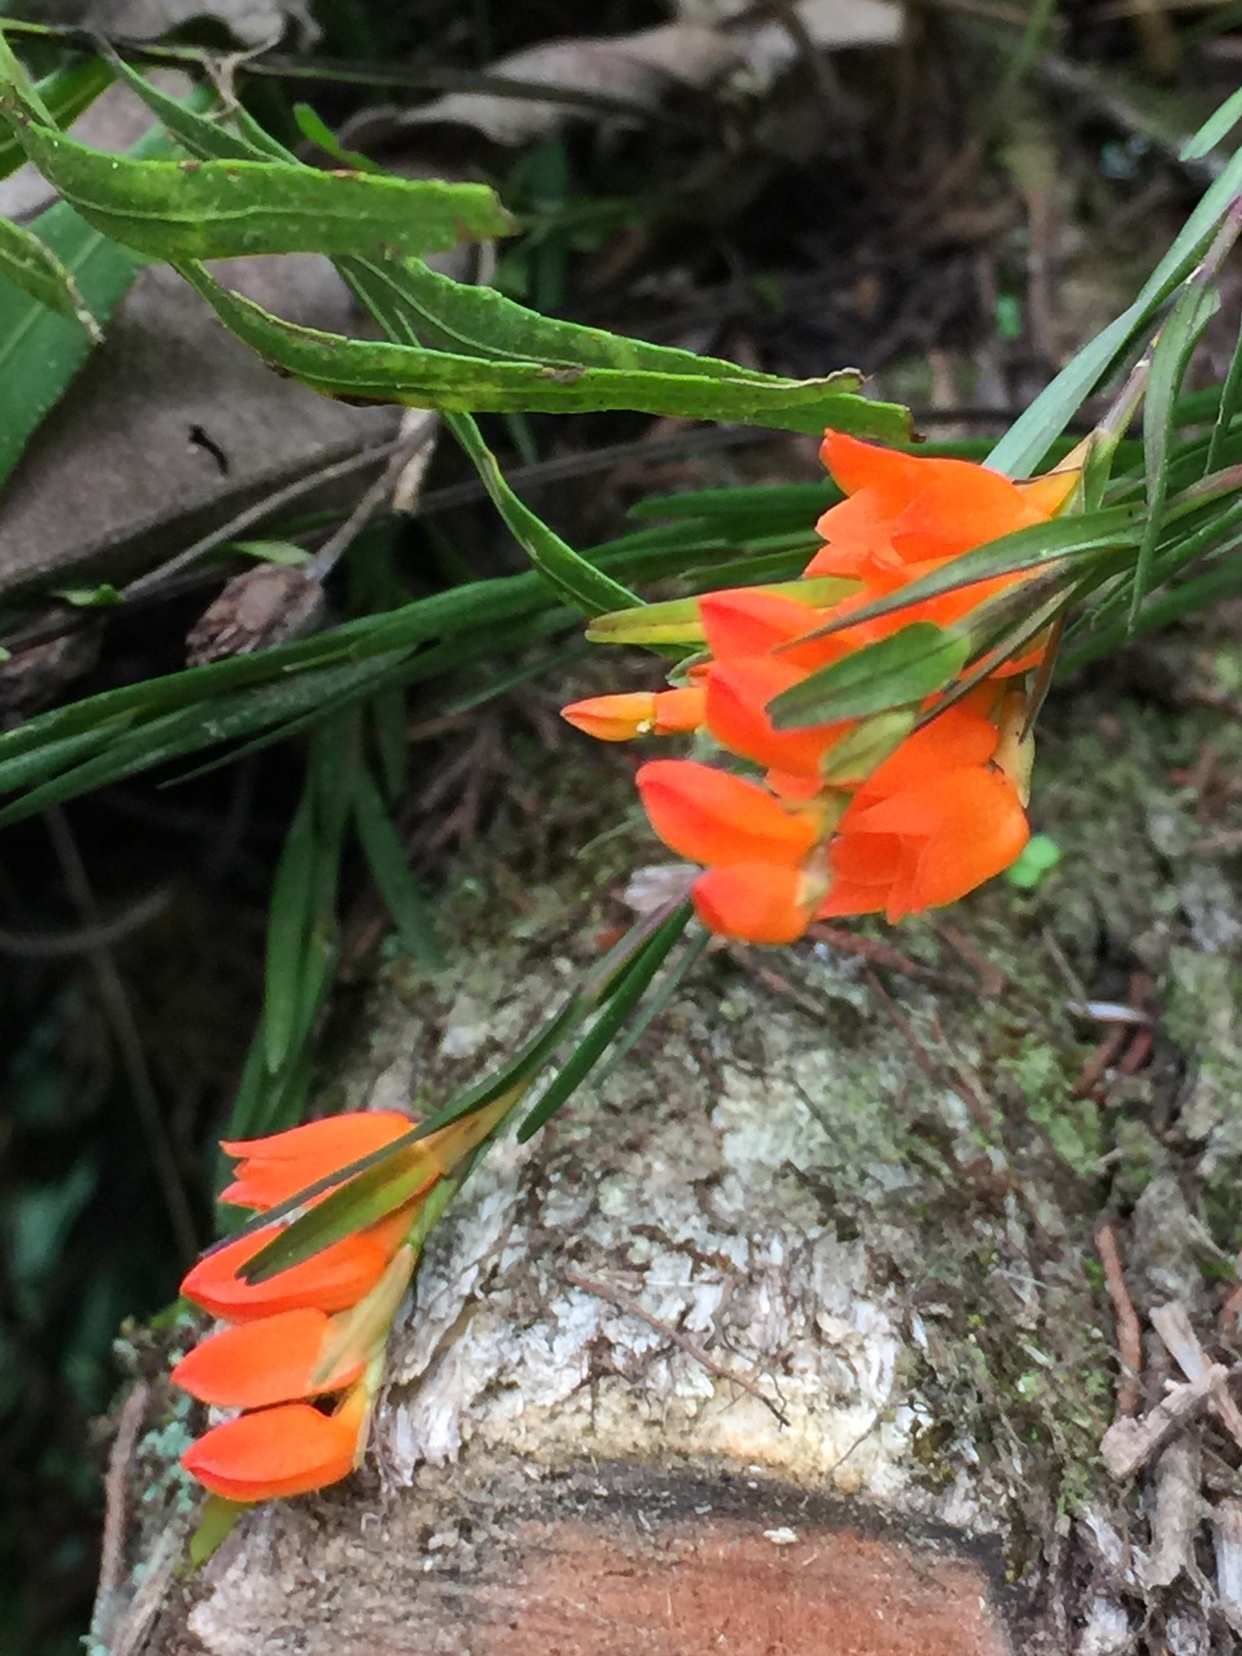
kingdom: Plantae
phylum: Tracheophyta
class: Liliopsida
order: Asparagales
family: Orchidaceae
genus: Isochilus
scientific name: Isochilus aurantiacus
